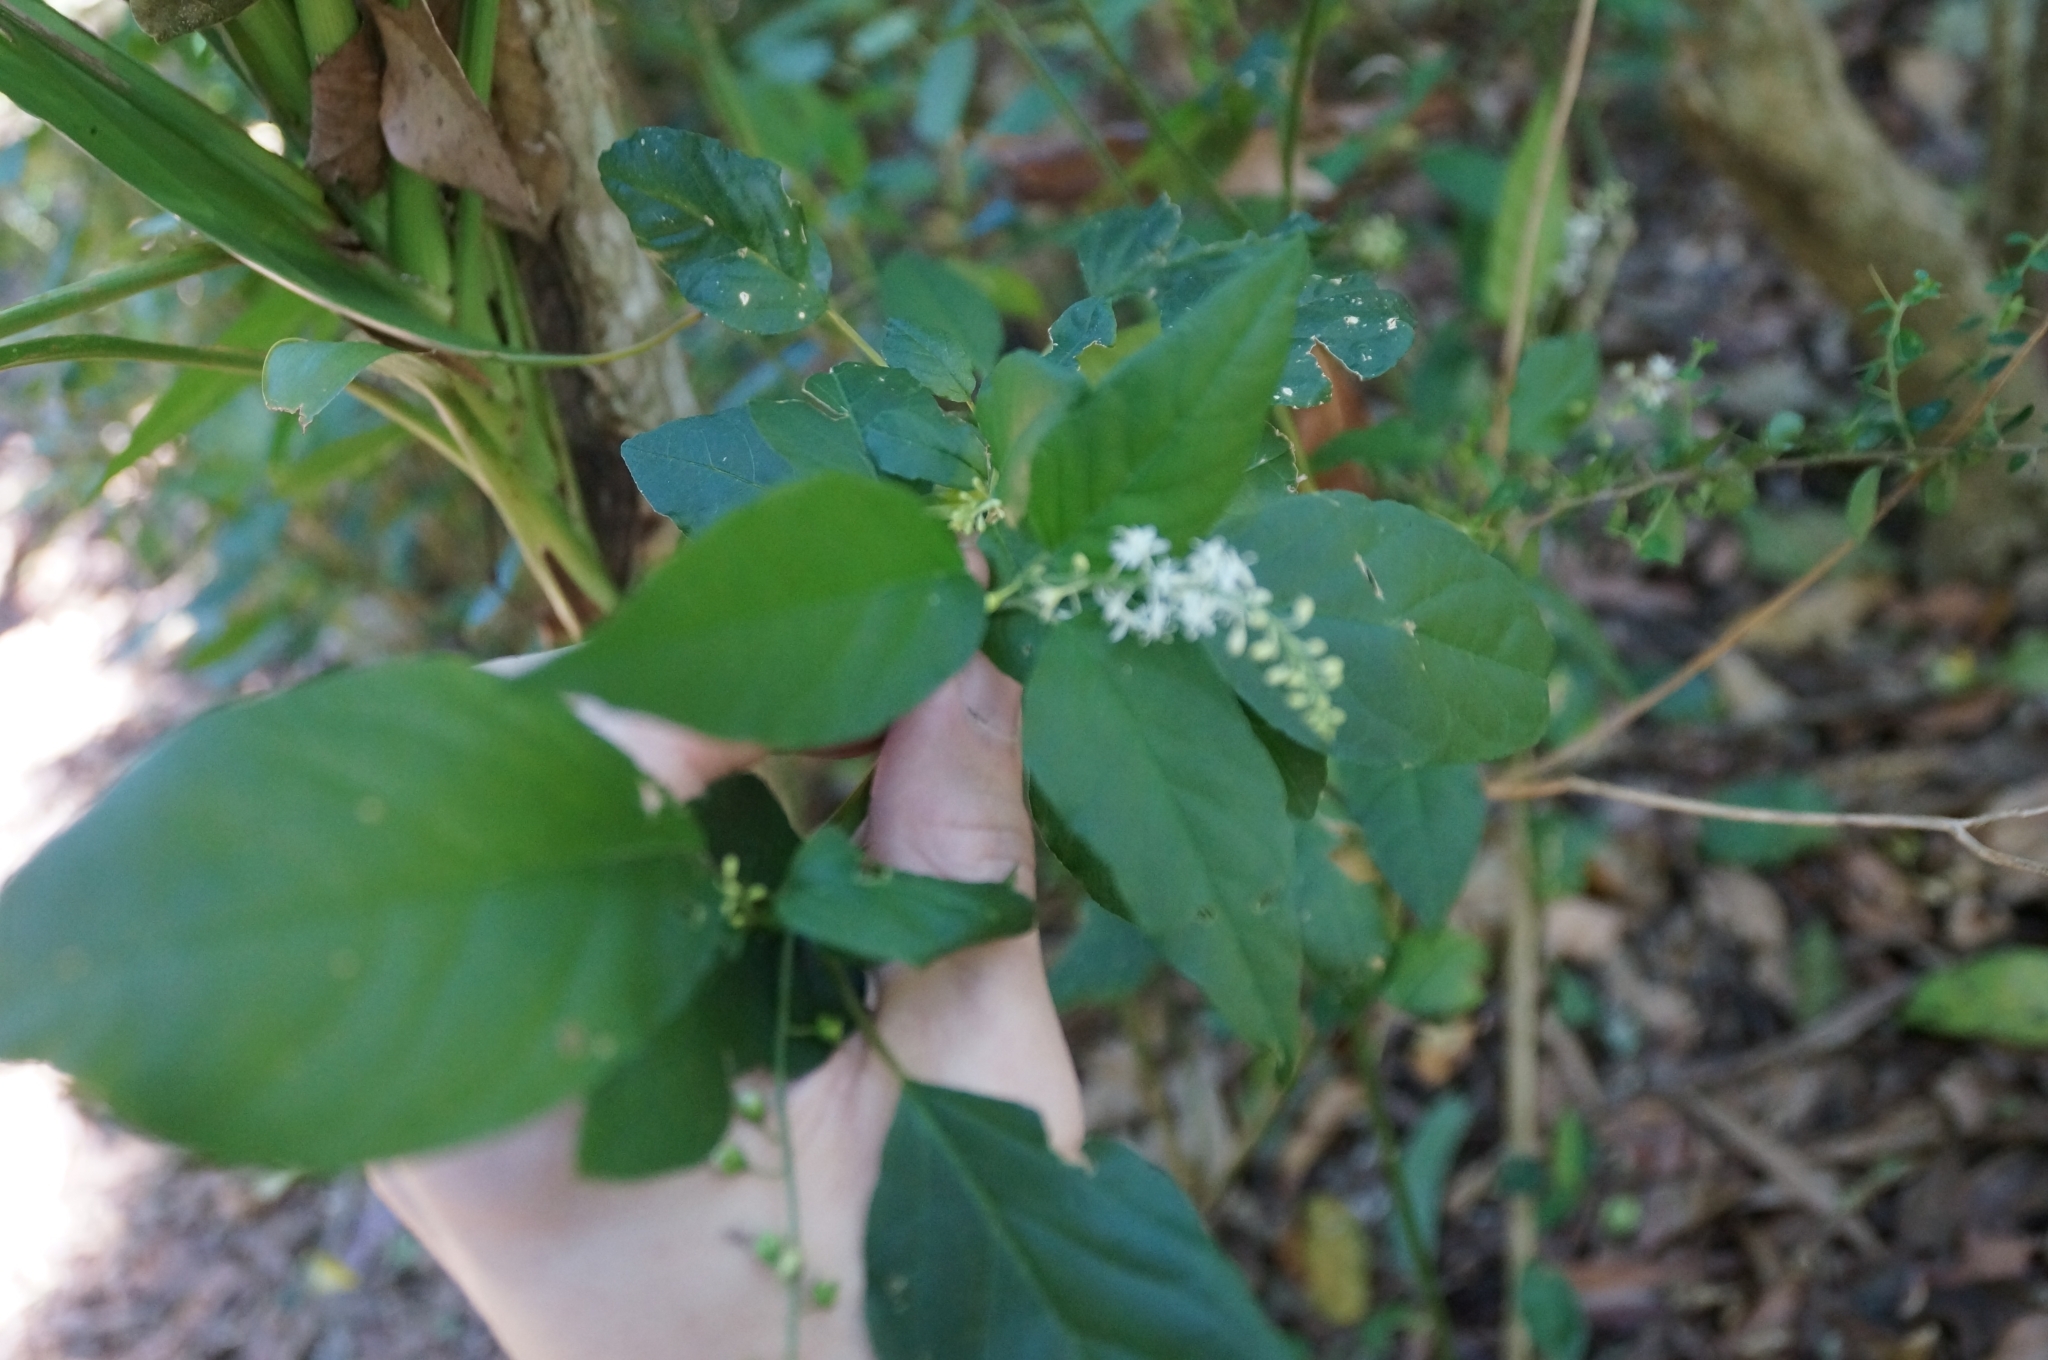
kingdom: Plantae
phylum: Tracheophyta
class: Magnoliopsida
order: Caryophyllales
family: Phytolaccaceae
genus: Rivina
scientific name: Rivina humilis
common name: Rougeplant
